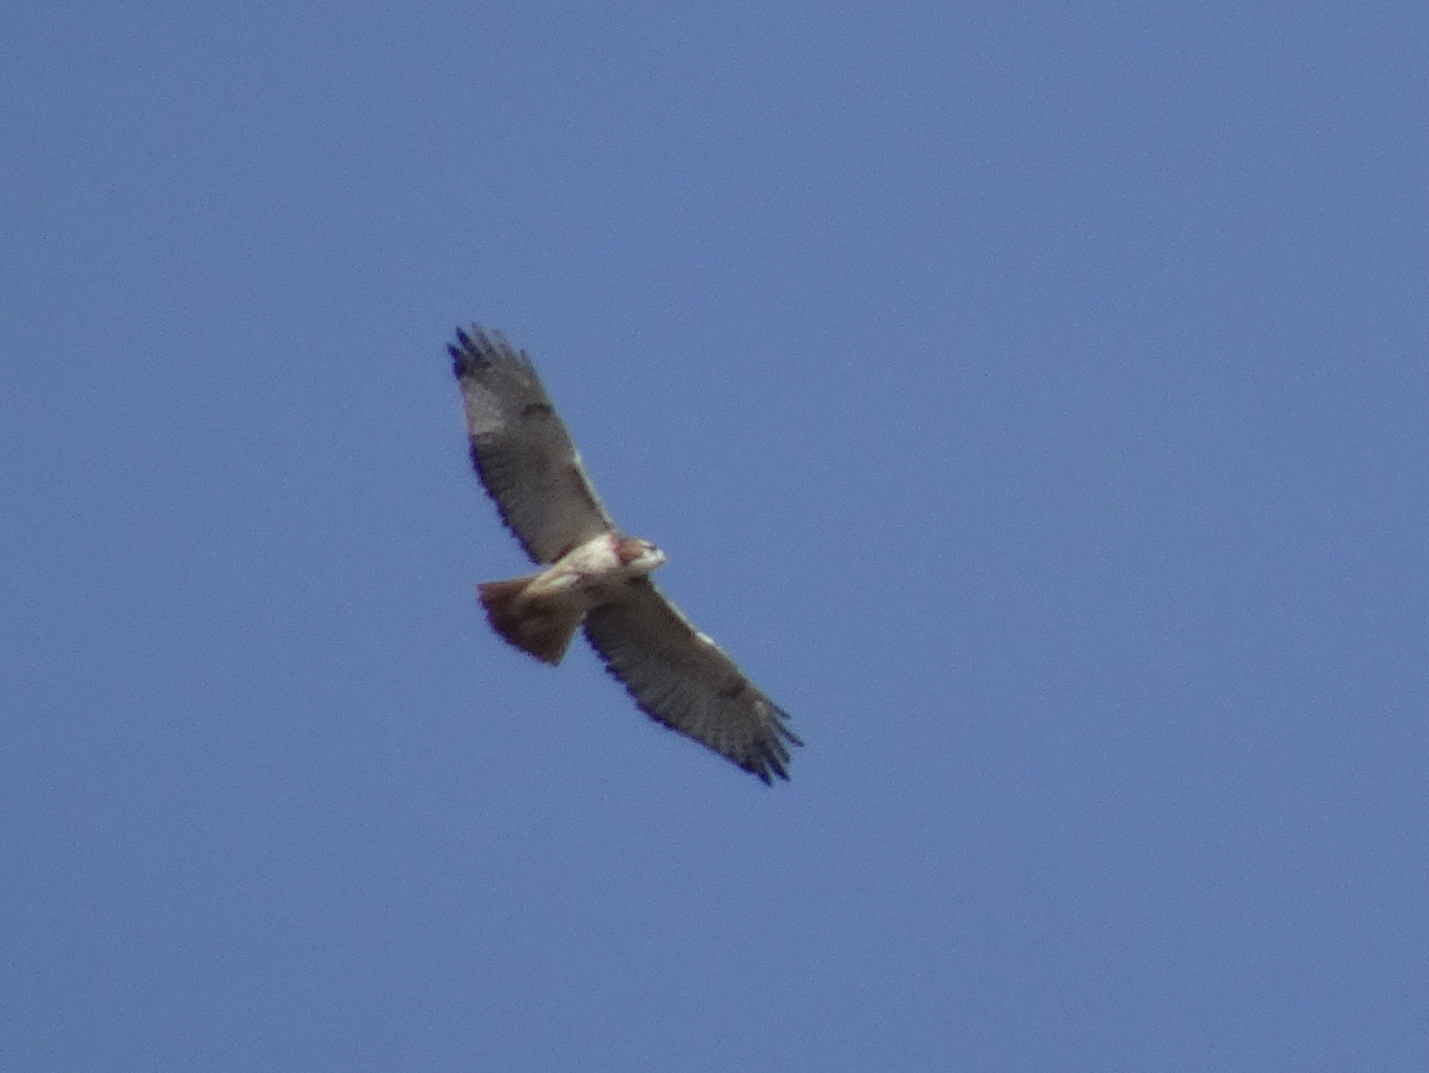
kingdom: Animalia
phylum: Chordata
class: Aves
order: Accipitriformes
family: Accipitridae
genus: Buteo
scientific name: Buteo jamaicensis
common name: Red-tailed hawk
